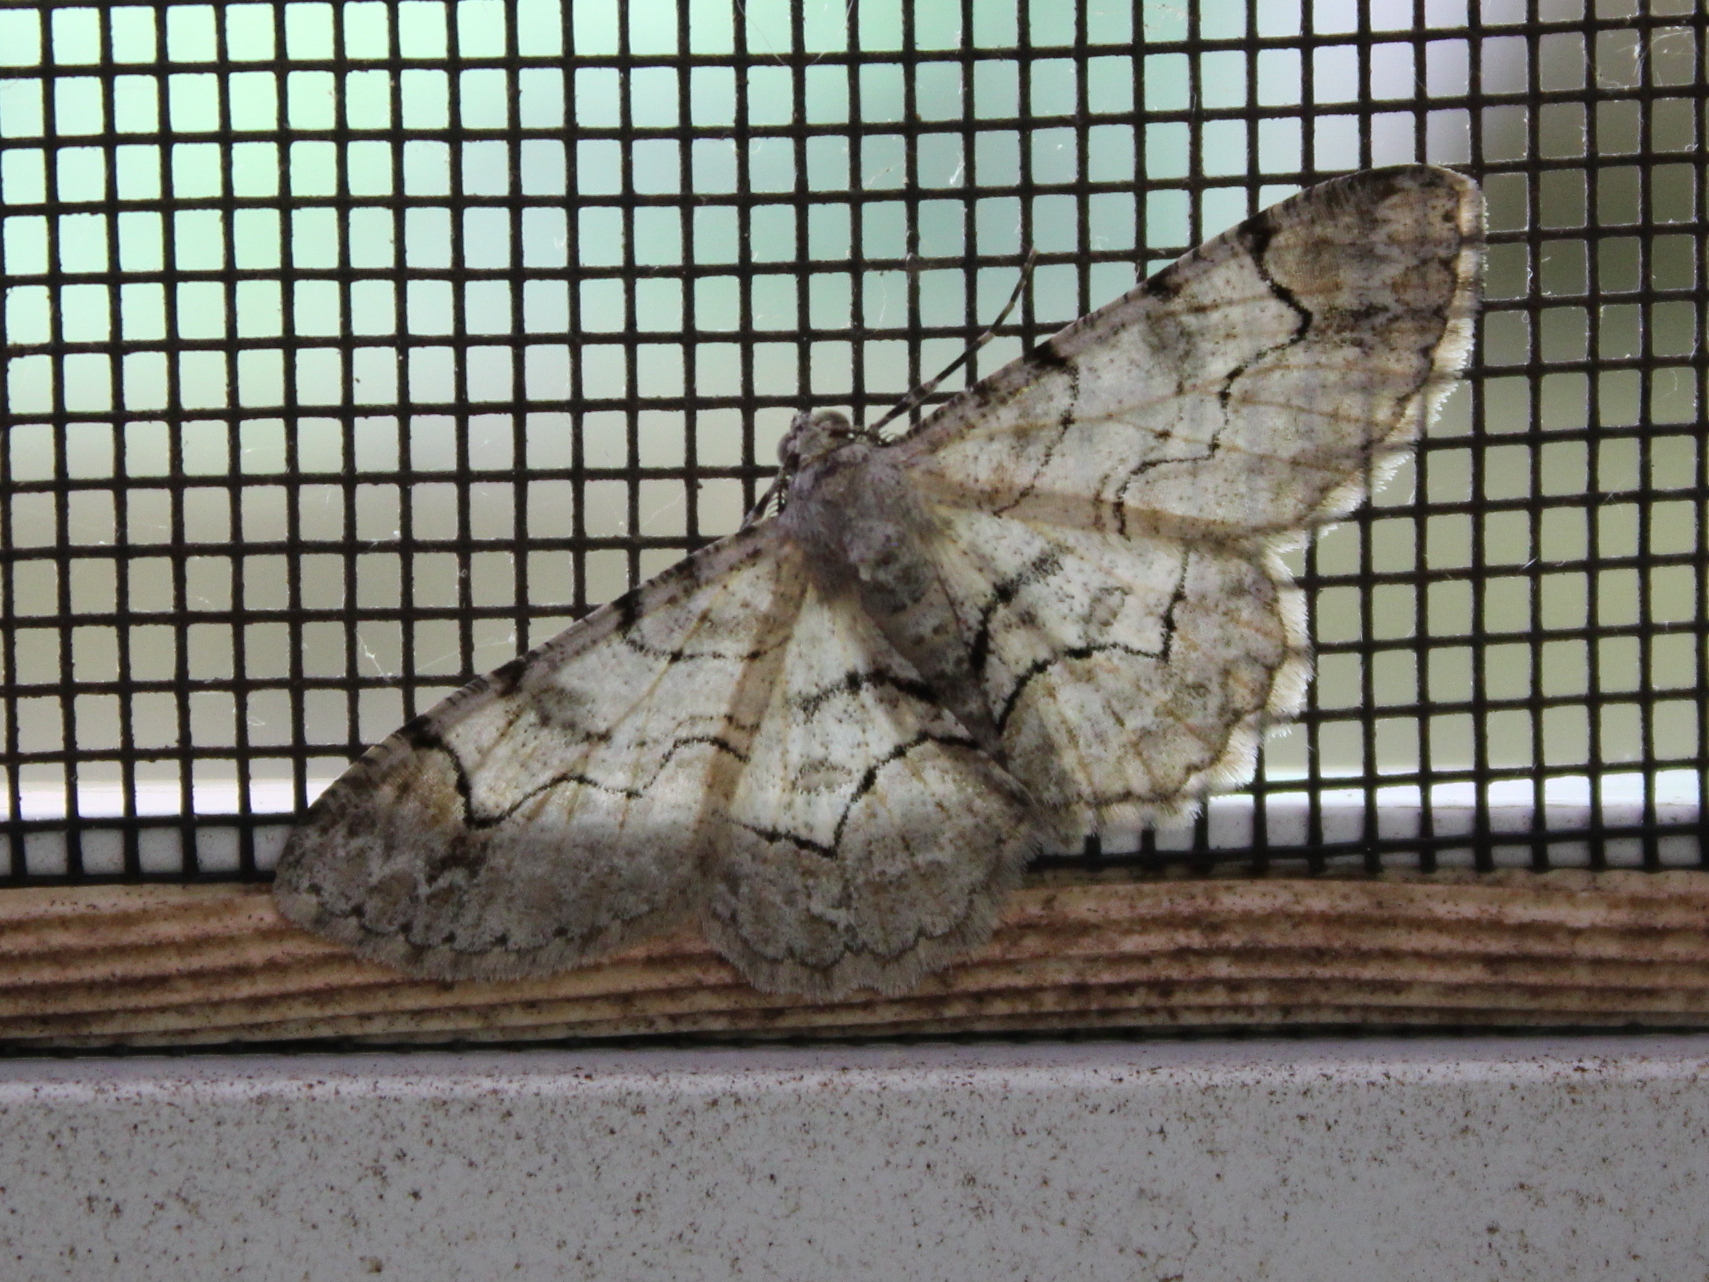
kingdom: Animalia
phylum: Arthropoda
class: Insecta
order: Lepidoptera
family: Geometridae
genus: Iridopsis
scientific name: Iridopsis larvaria
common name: Bent-line gray
